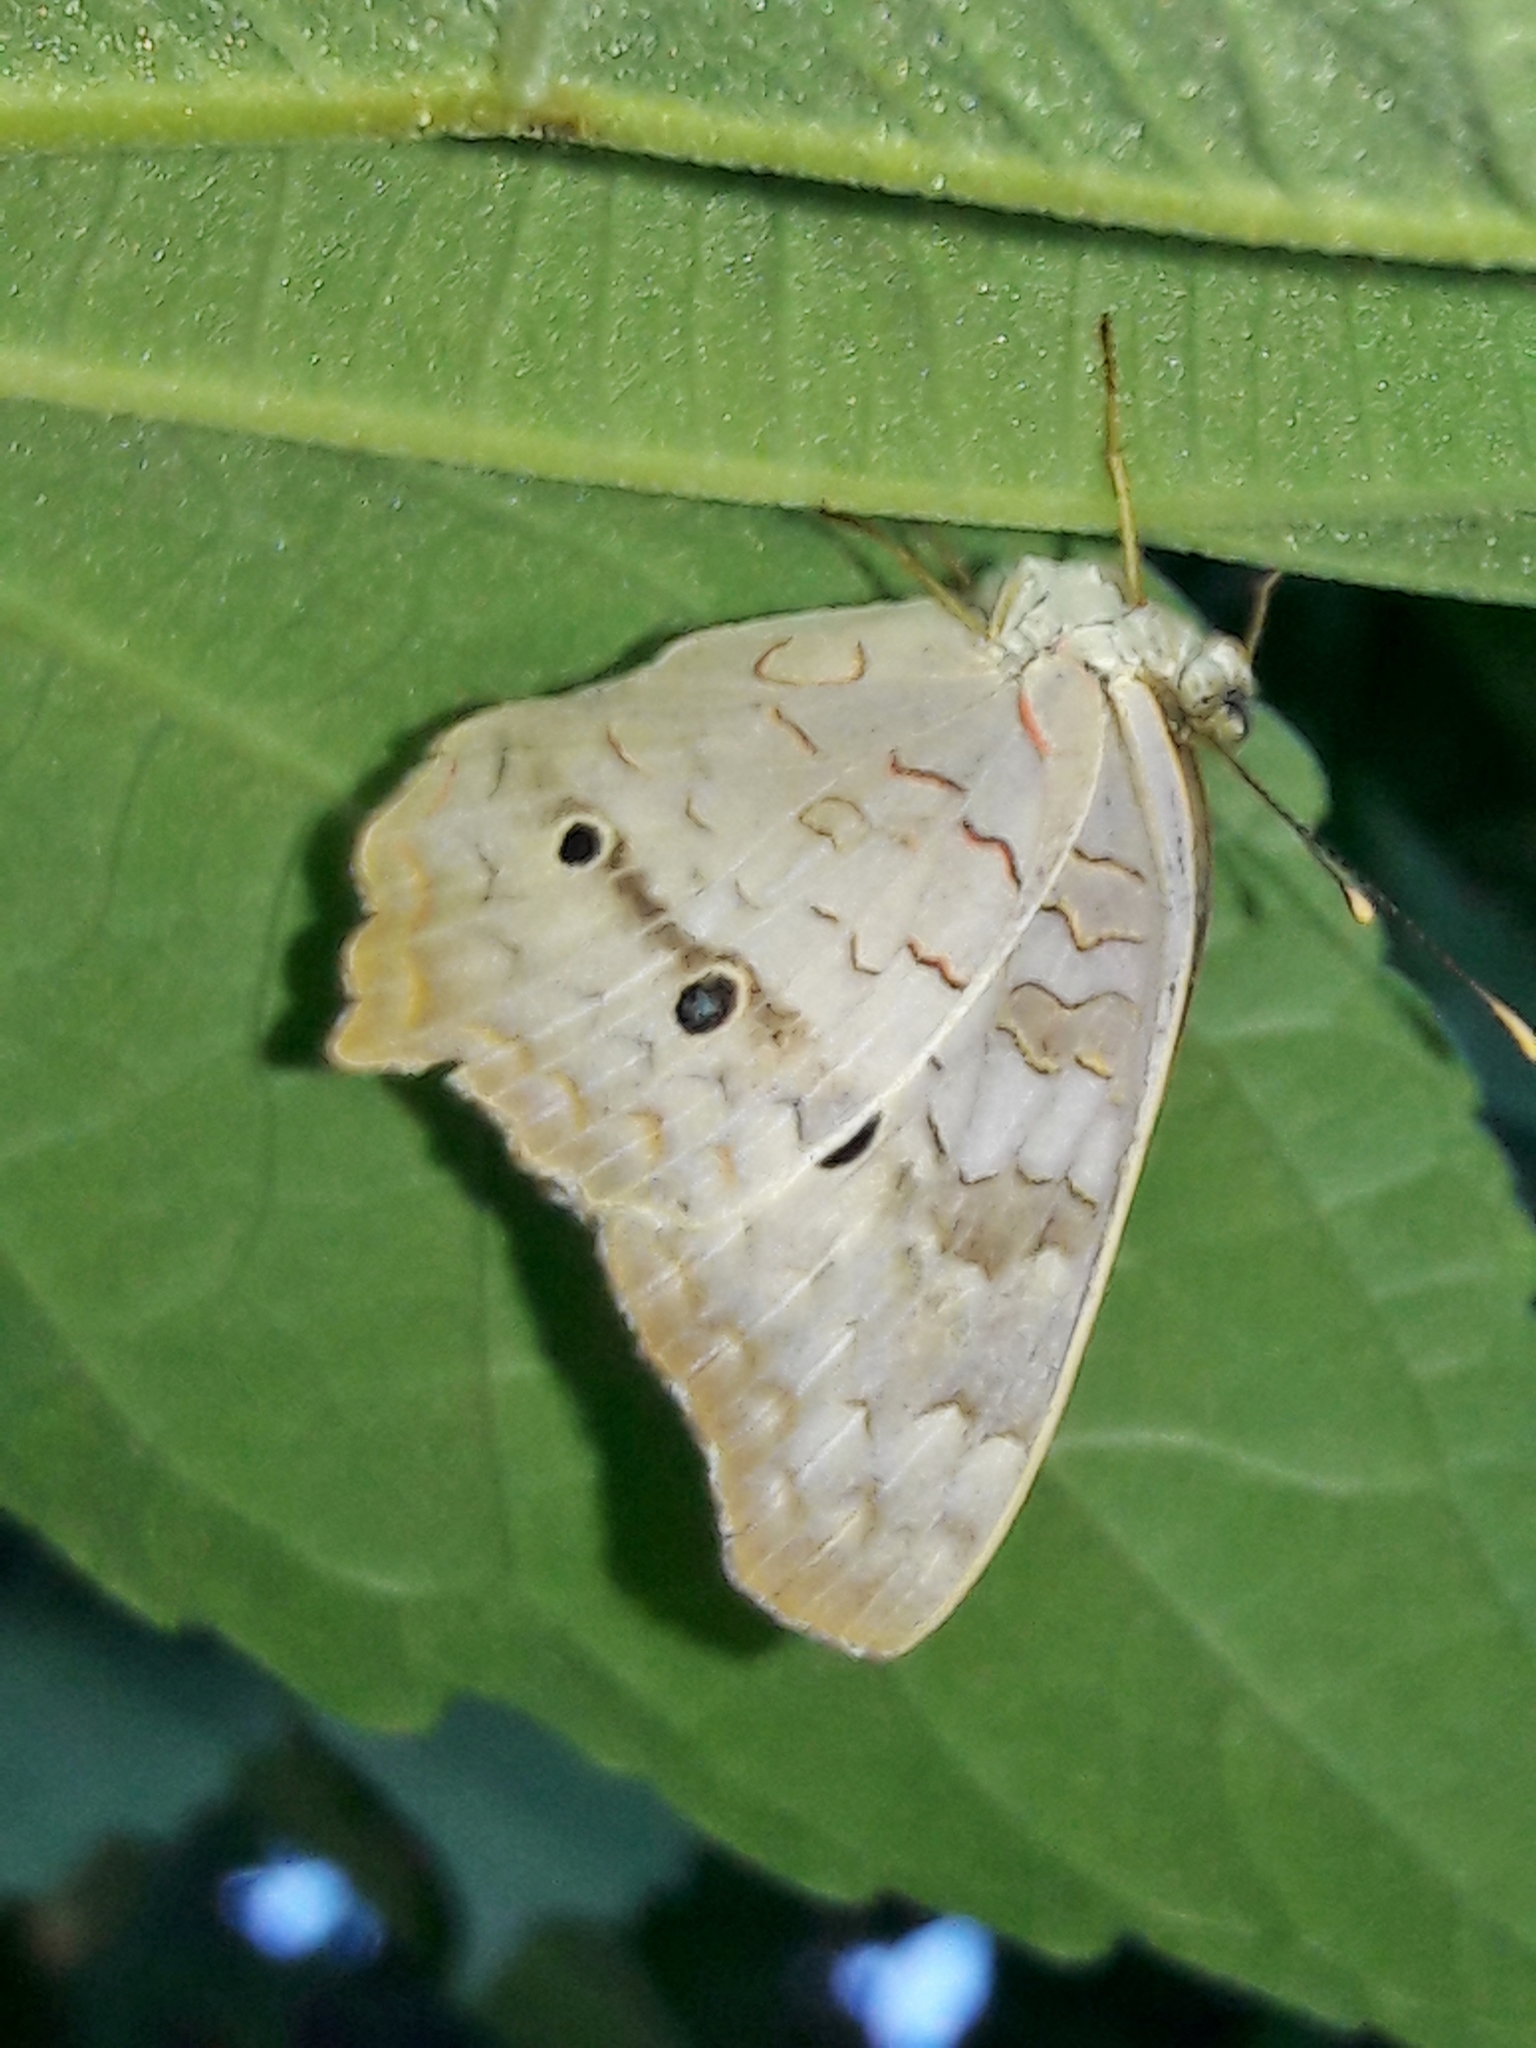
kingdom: Animalia
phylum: Arthropoda
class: Insecta
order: Lepidoptera
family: Nymphalidae
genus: Anartia
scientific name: Anartia jatrophae
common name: White peacock
